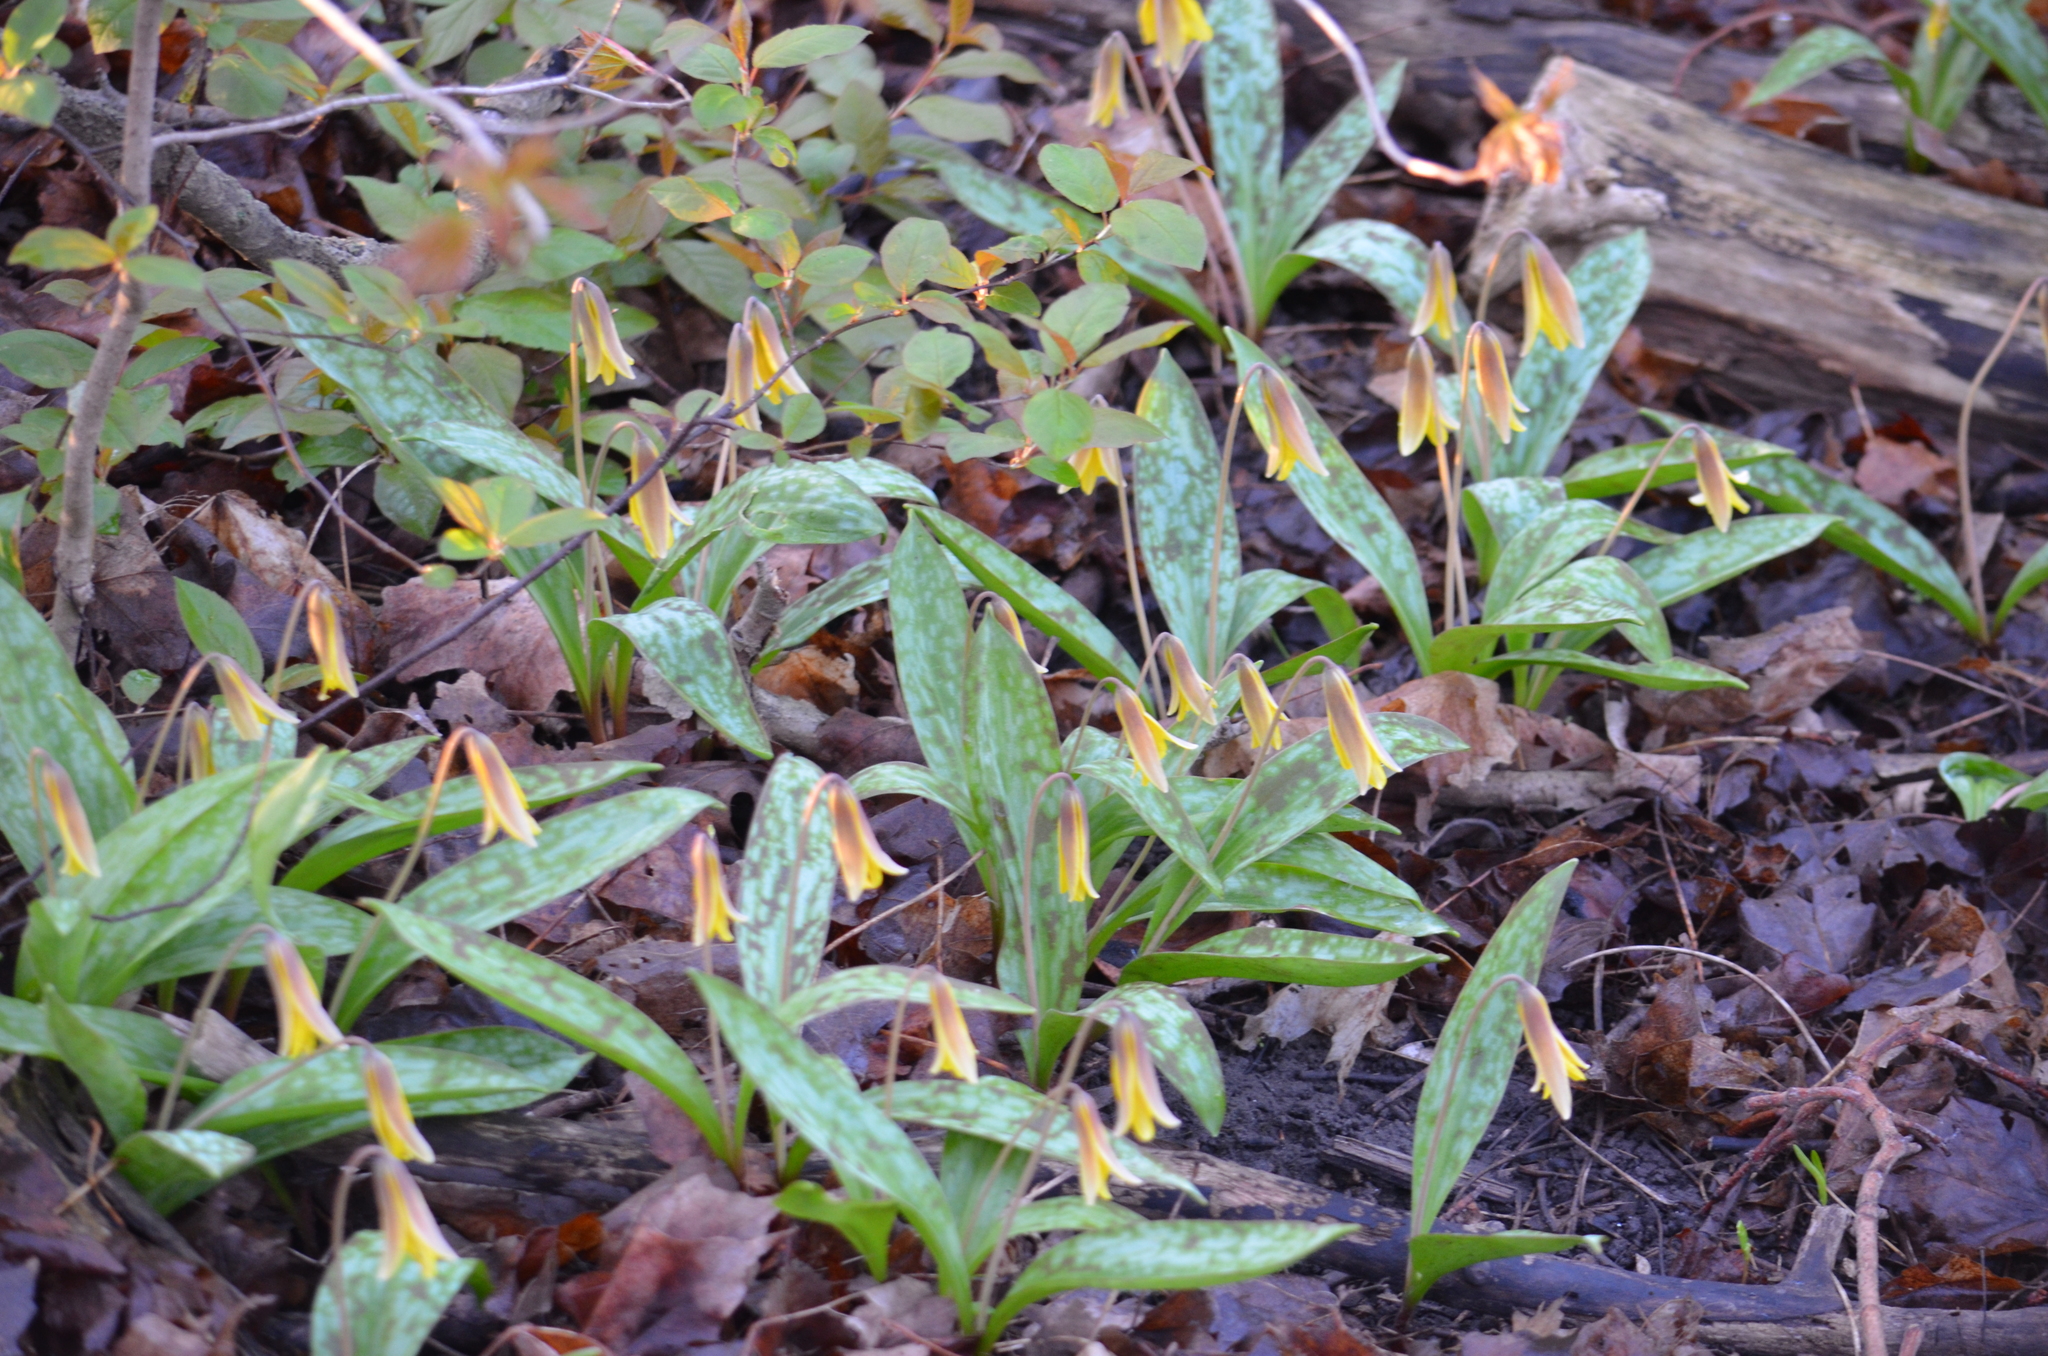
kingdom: Plantae
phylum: Tracheophyta
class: Liliopsida
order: Liliales
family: Liliaceae
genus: Erythronium
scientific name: Erythronium americanum
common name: Yellow adder's-tongue
